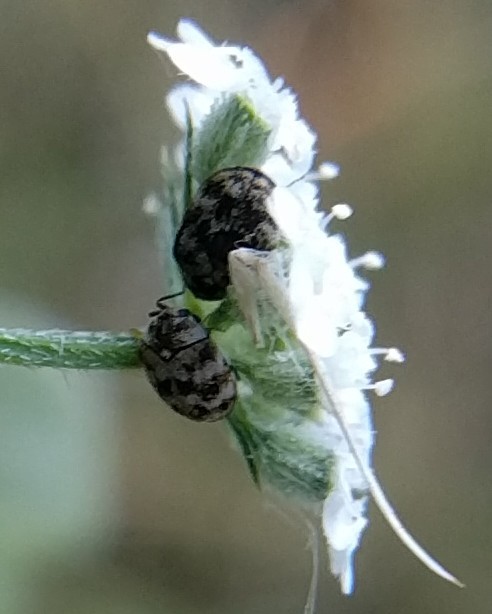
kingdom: Animalia
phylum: Arthropoda
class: Insecta
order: Coleoptera
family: Dermestidae
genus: Anthrenus
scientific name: Anthrenus verbasci
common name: Varied carpet beetle
